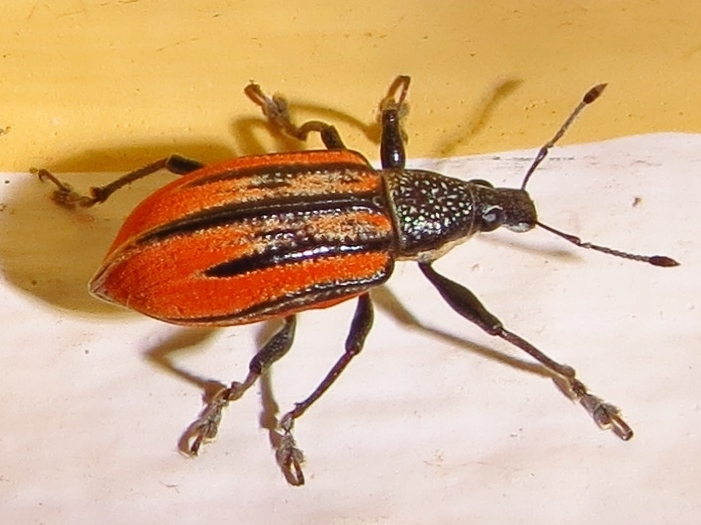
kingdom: Animalia
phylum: Arthropoda
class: Insecta
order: Coleoptera
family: Curculionidae
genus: Diaprepes
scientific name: Diaprepes abbreviatus
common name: Root weevil
